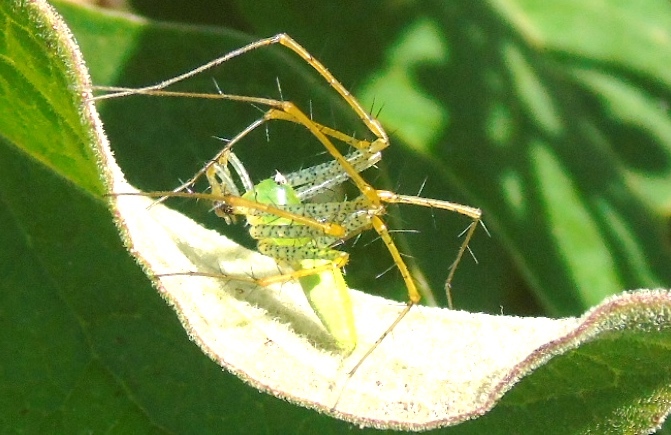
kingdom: Animalia
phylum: Arthropoda
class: Arachnida
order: Araneae
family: Oxyopidae
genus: Peucetia
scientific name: Peucetia
